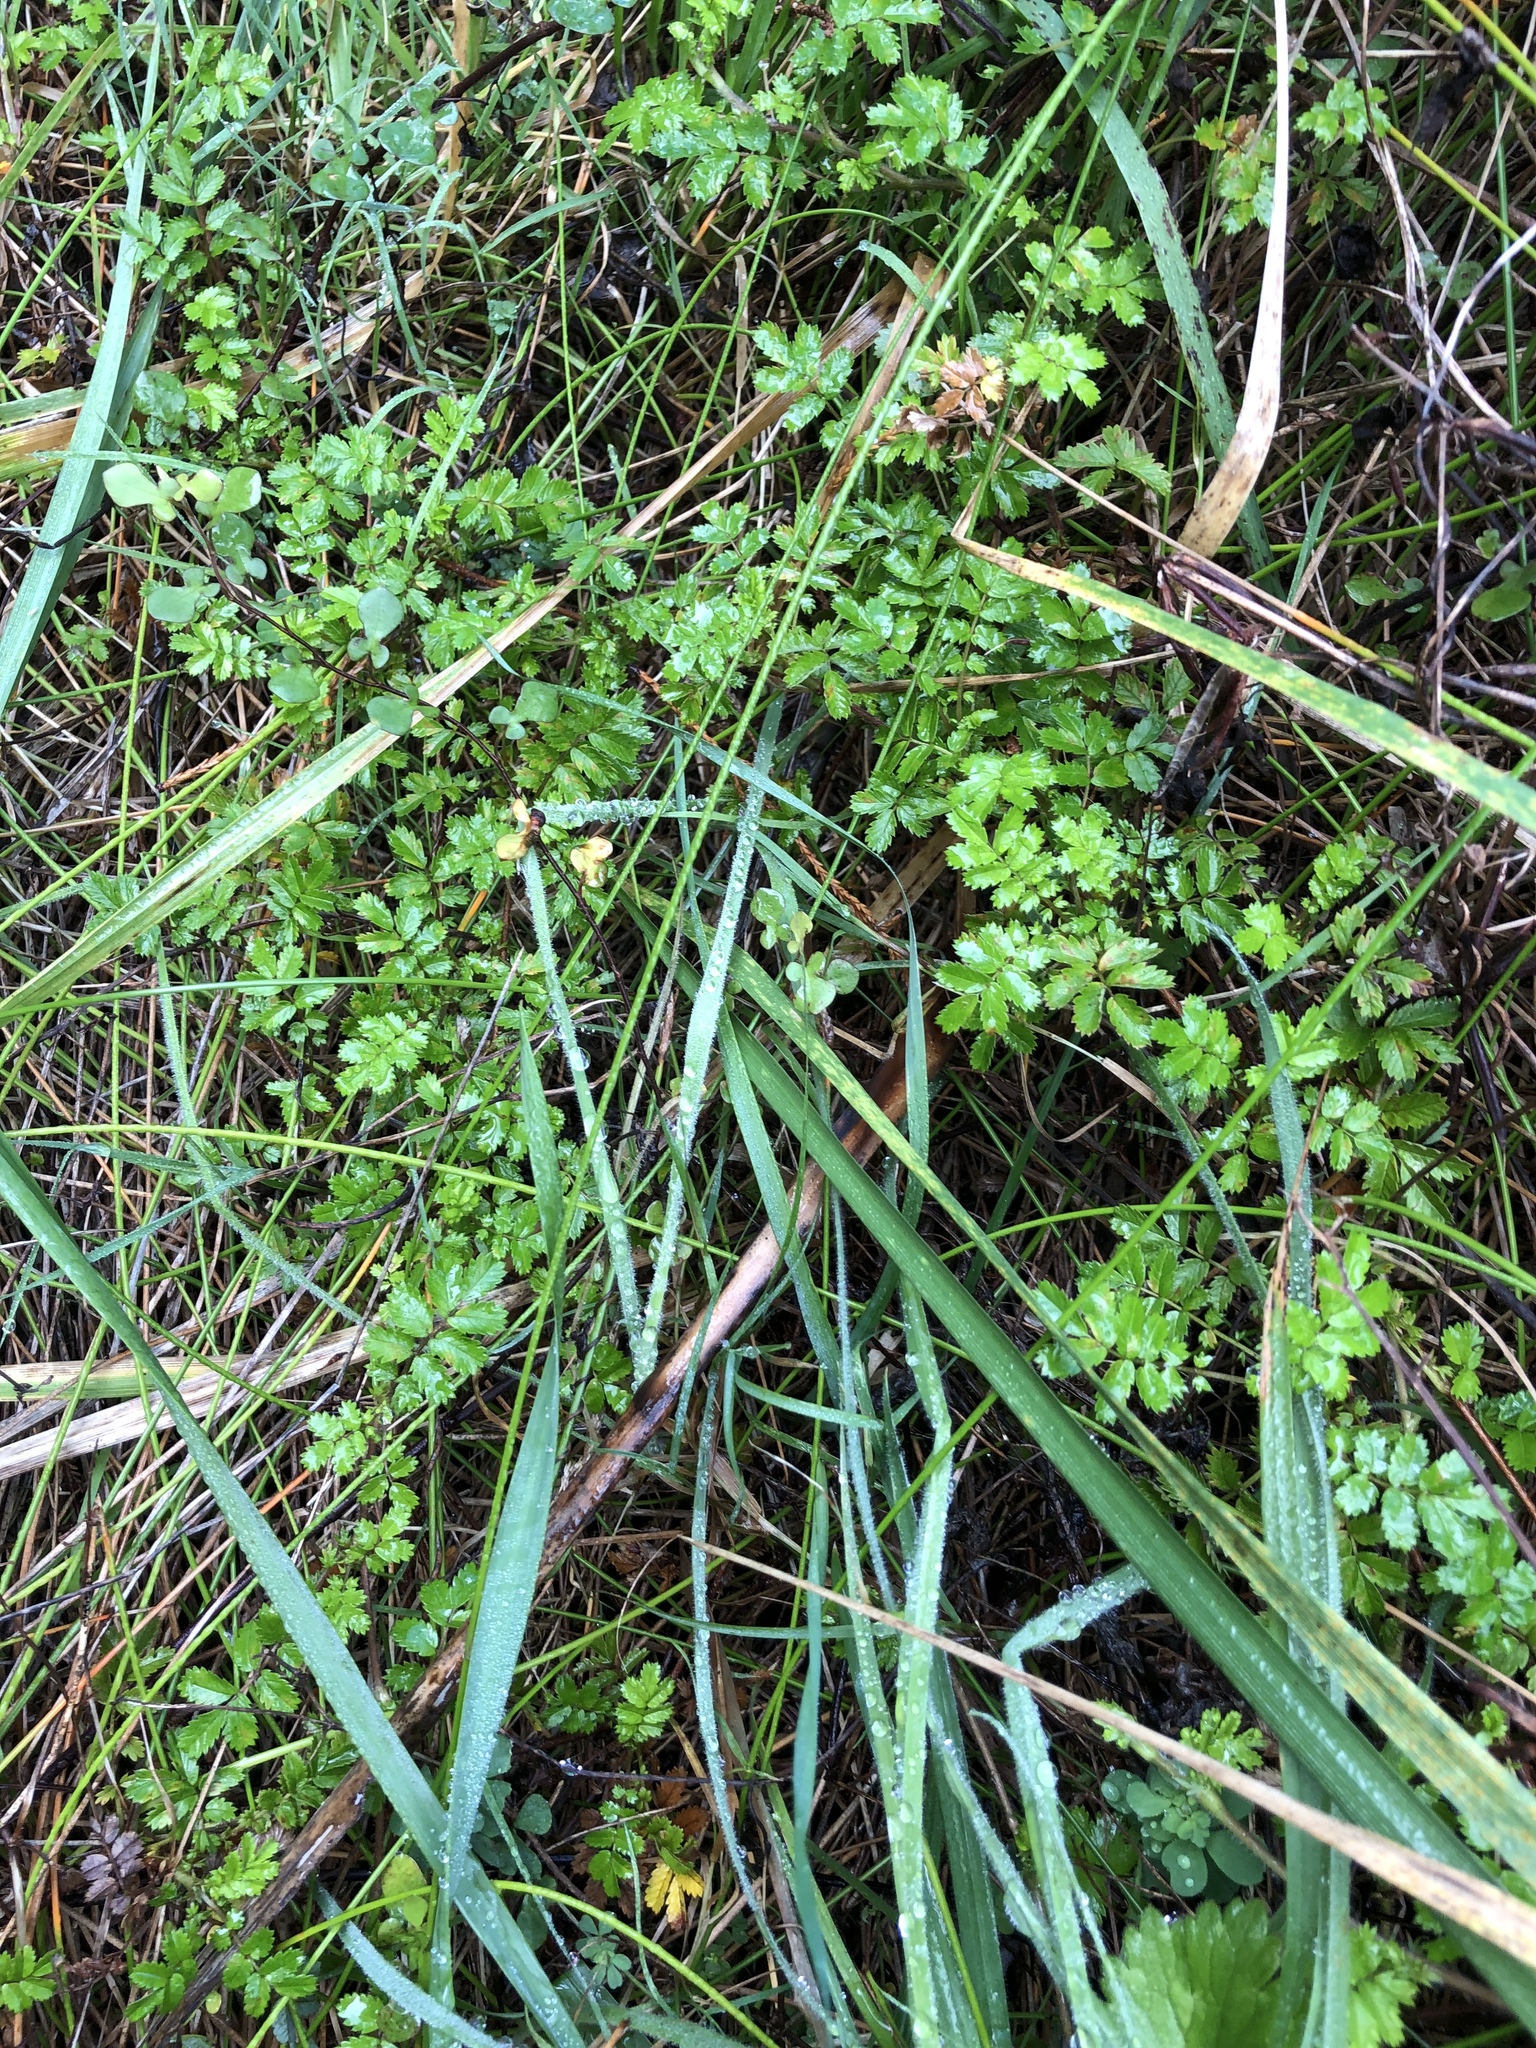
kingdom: Plantae
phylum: Tracheophyta
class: Magnoliopsida
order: Rosales
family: Rosaceae
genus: Acaena
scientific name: Acaena novae-zelandiae
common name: Pirri-pirri-bur
